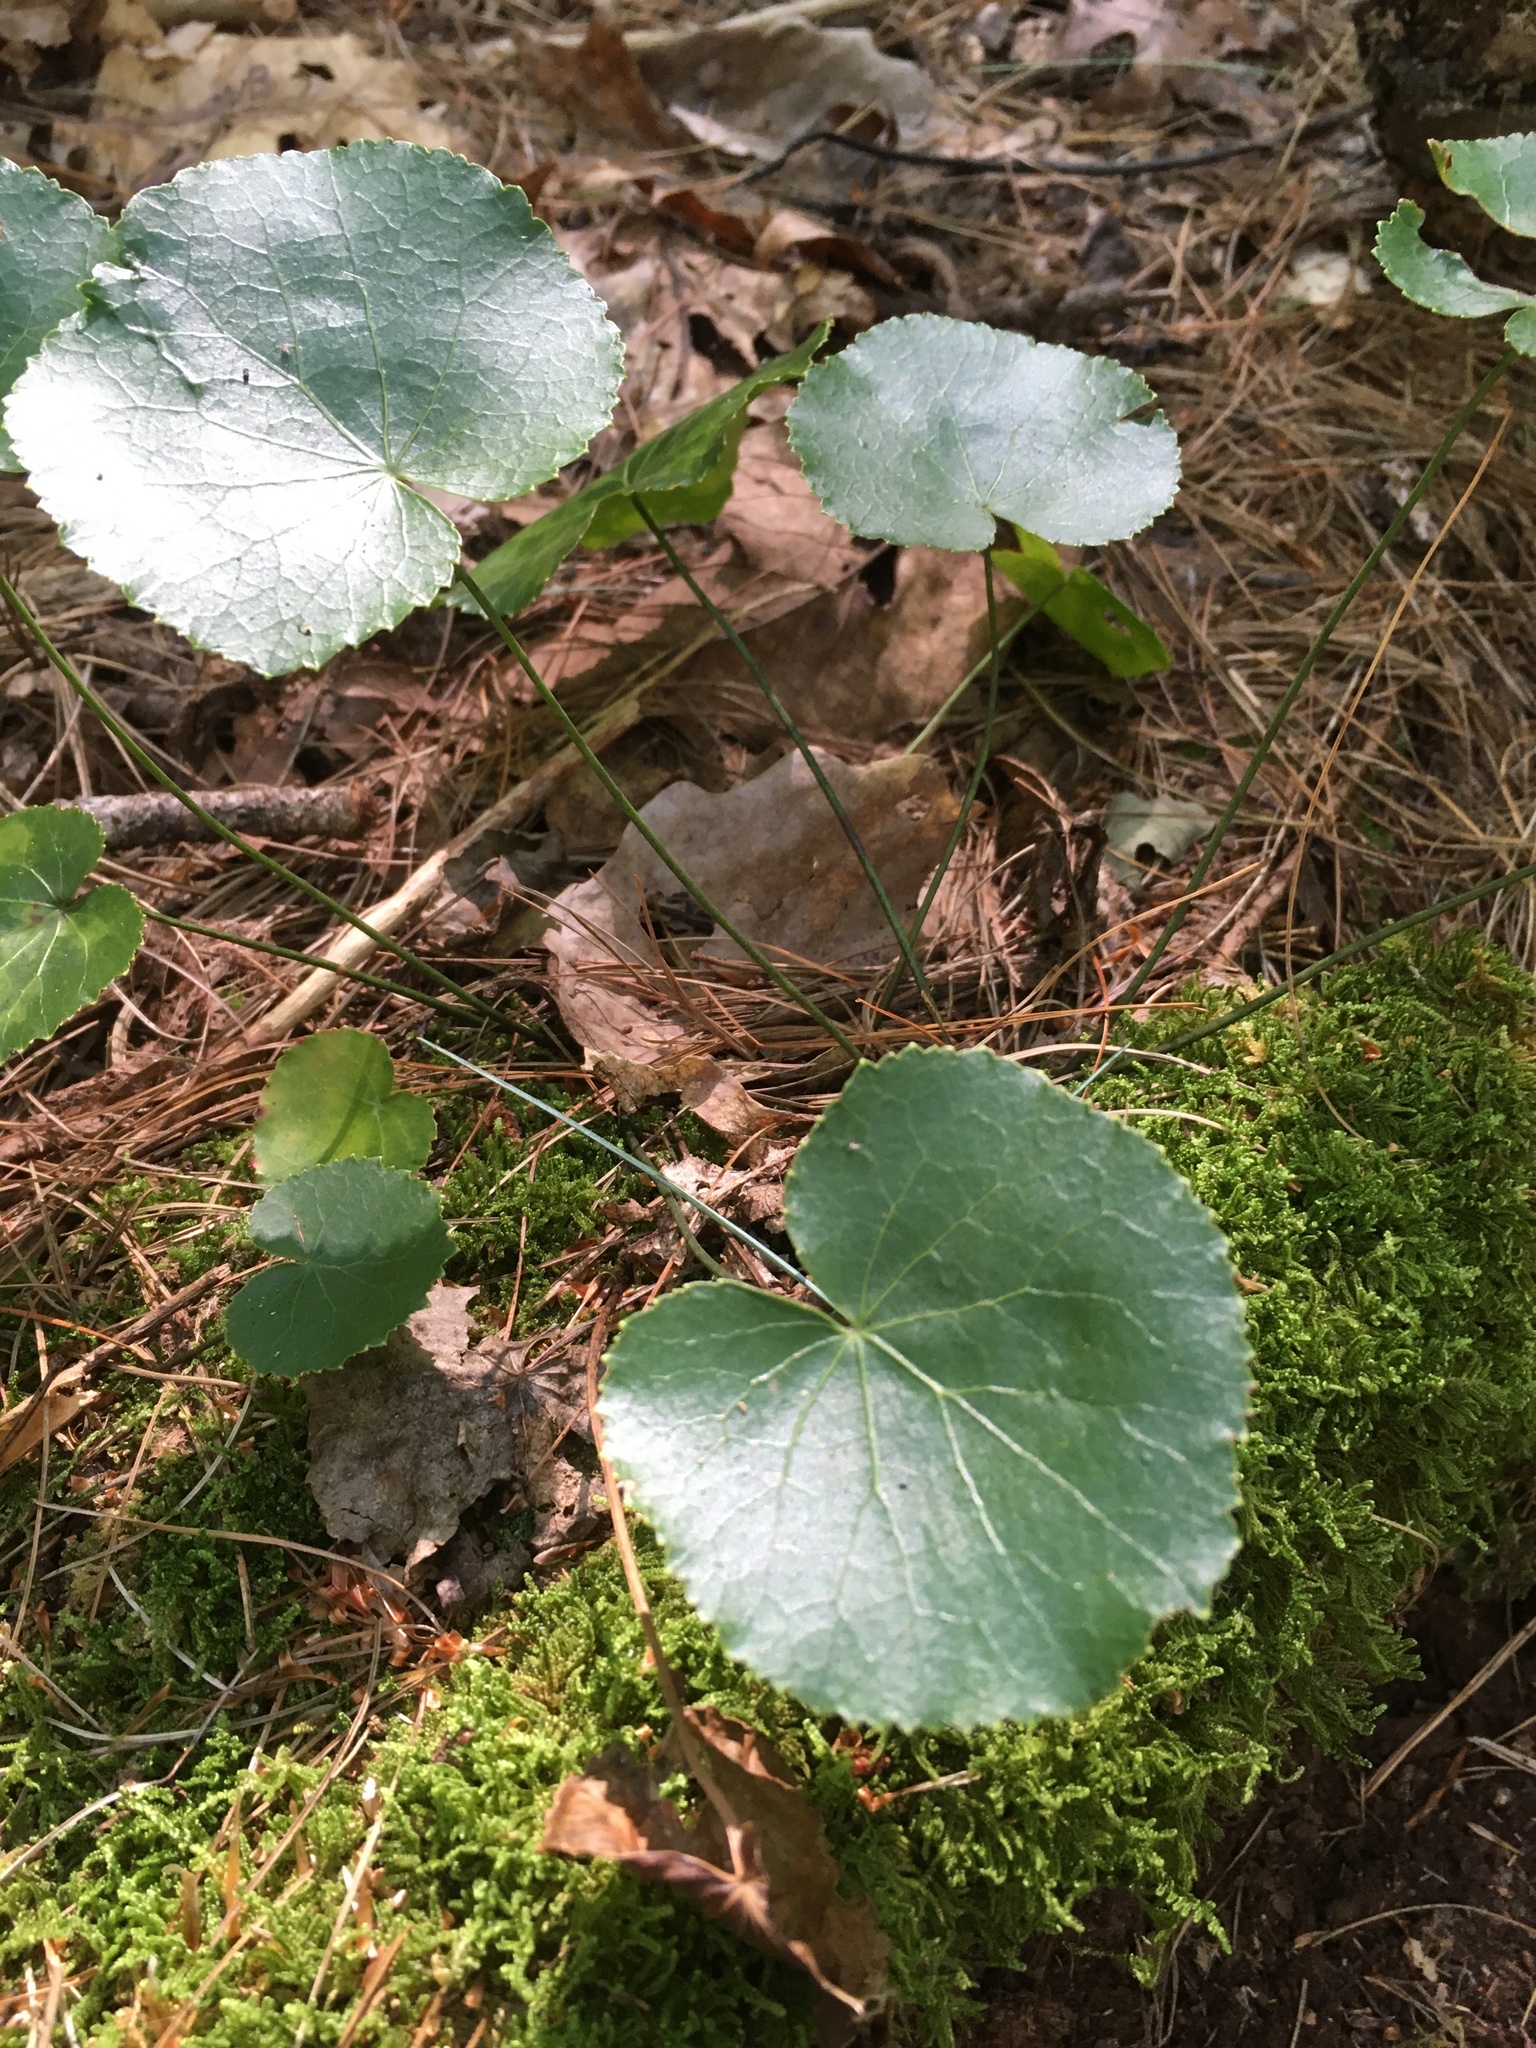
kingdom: Plantae
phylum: Tracheophyta
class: Magnoliopsida
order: Ericales
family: Diapensiaceae
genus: Galax
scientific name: Galax urceolata
